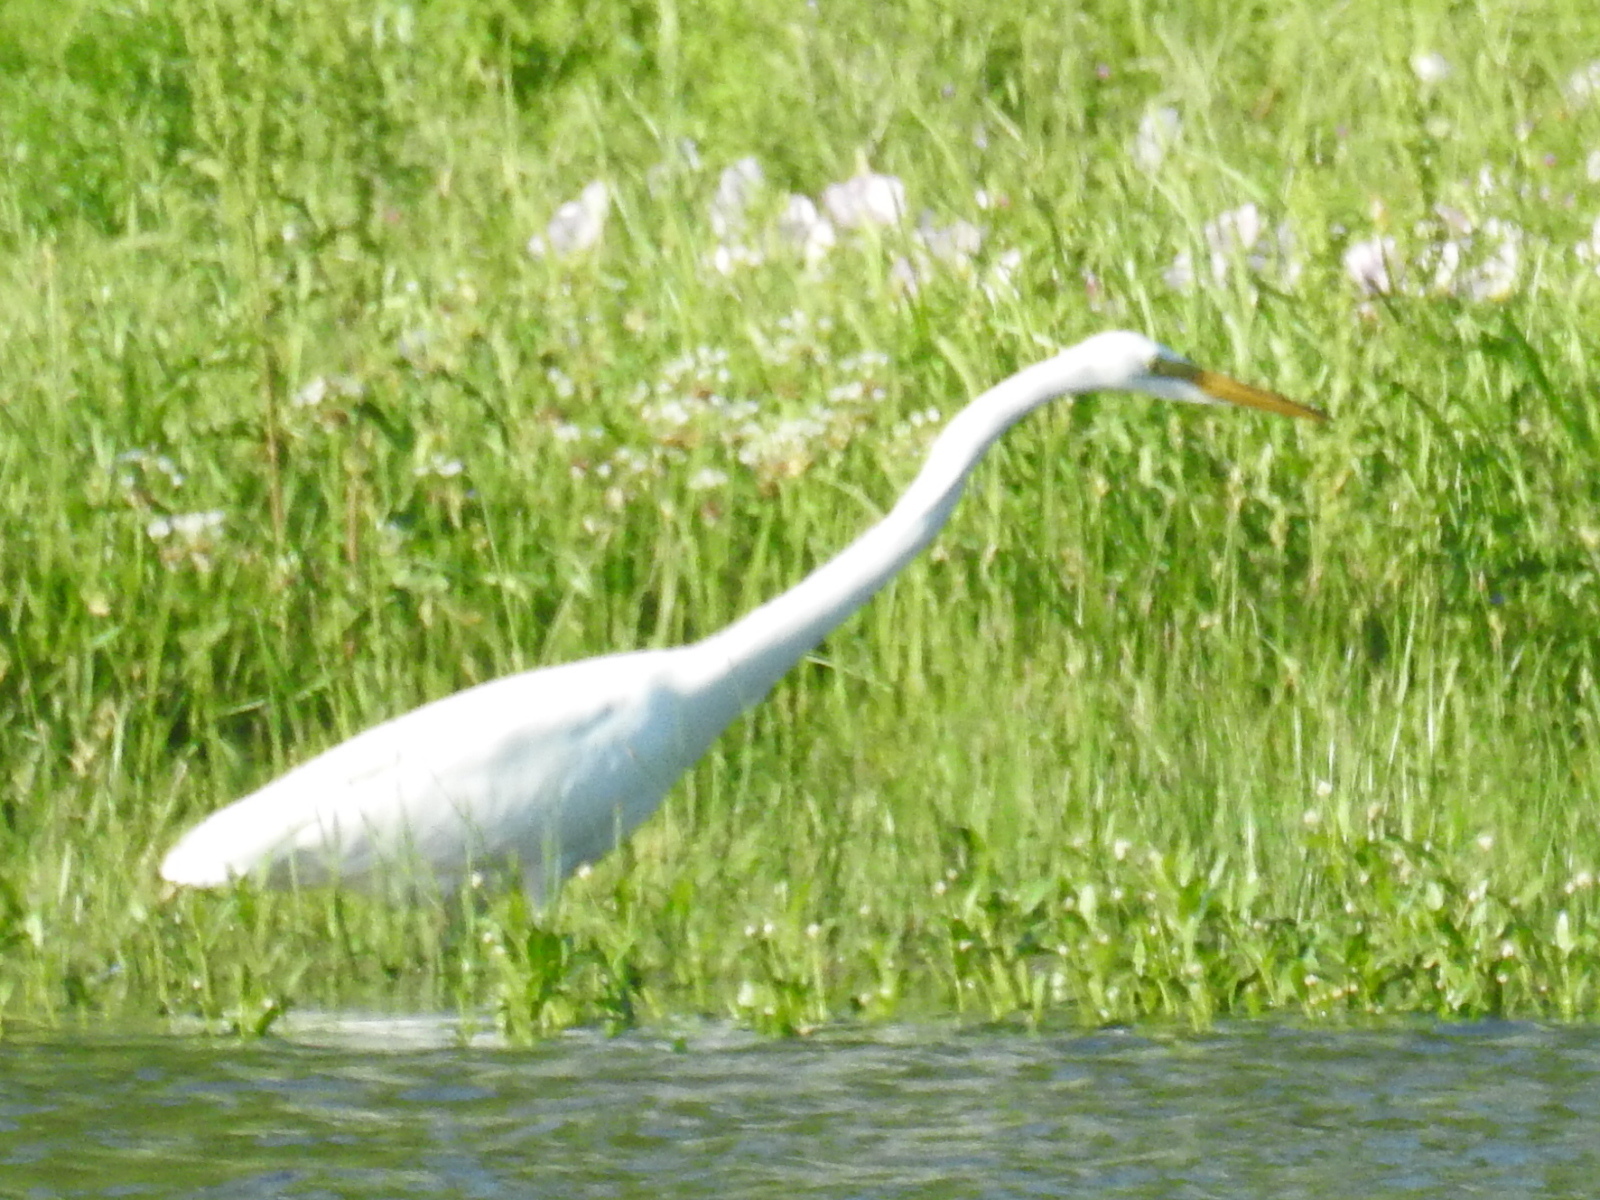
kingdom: Animalia
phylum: Chordata
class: Aves
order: Pelecaniformes
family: Ardeidae
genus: Ardea
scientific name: Ardea alba
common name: Great egret
